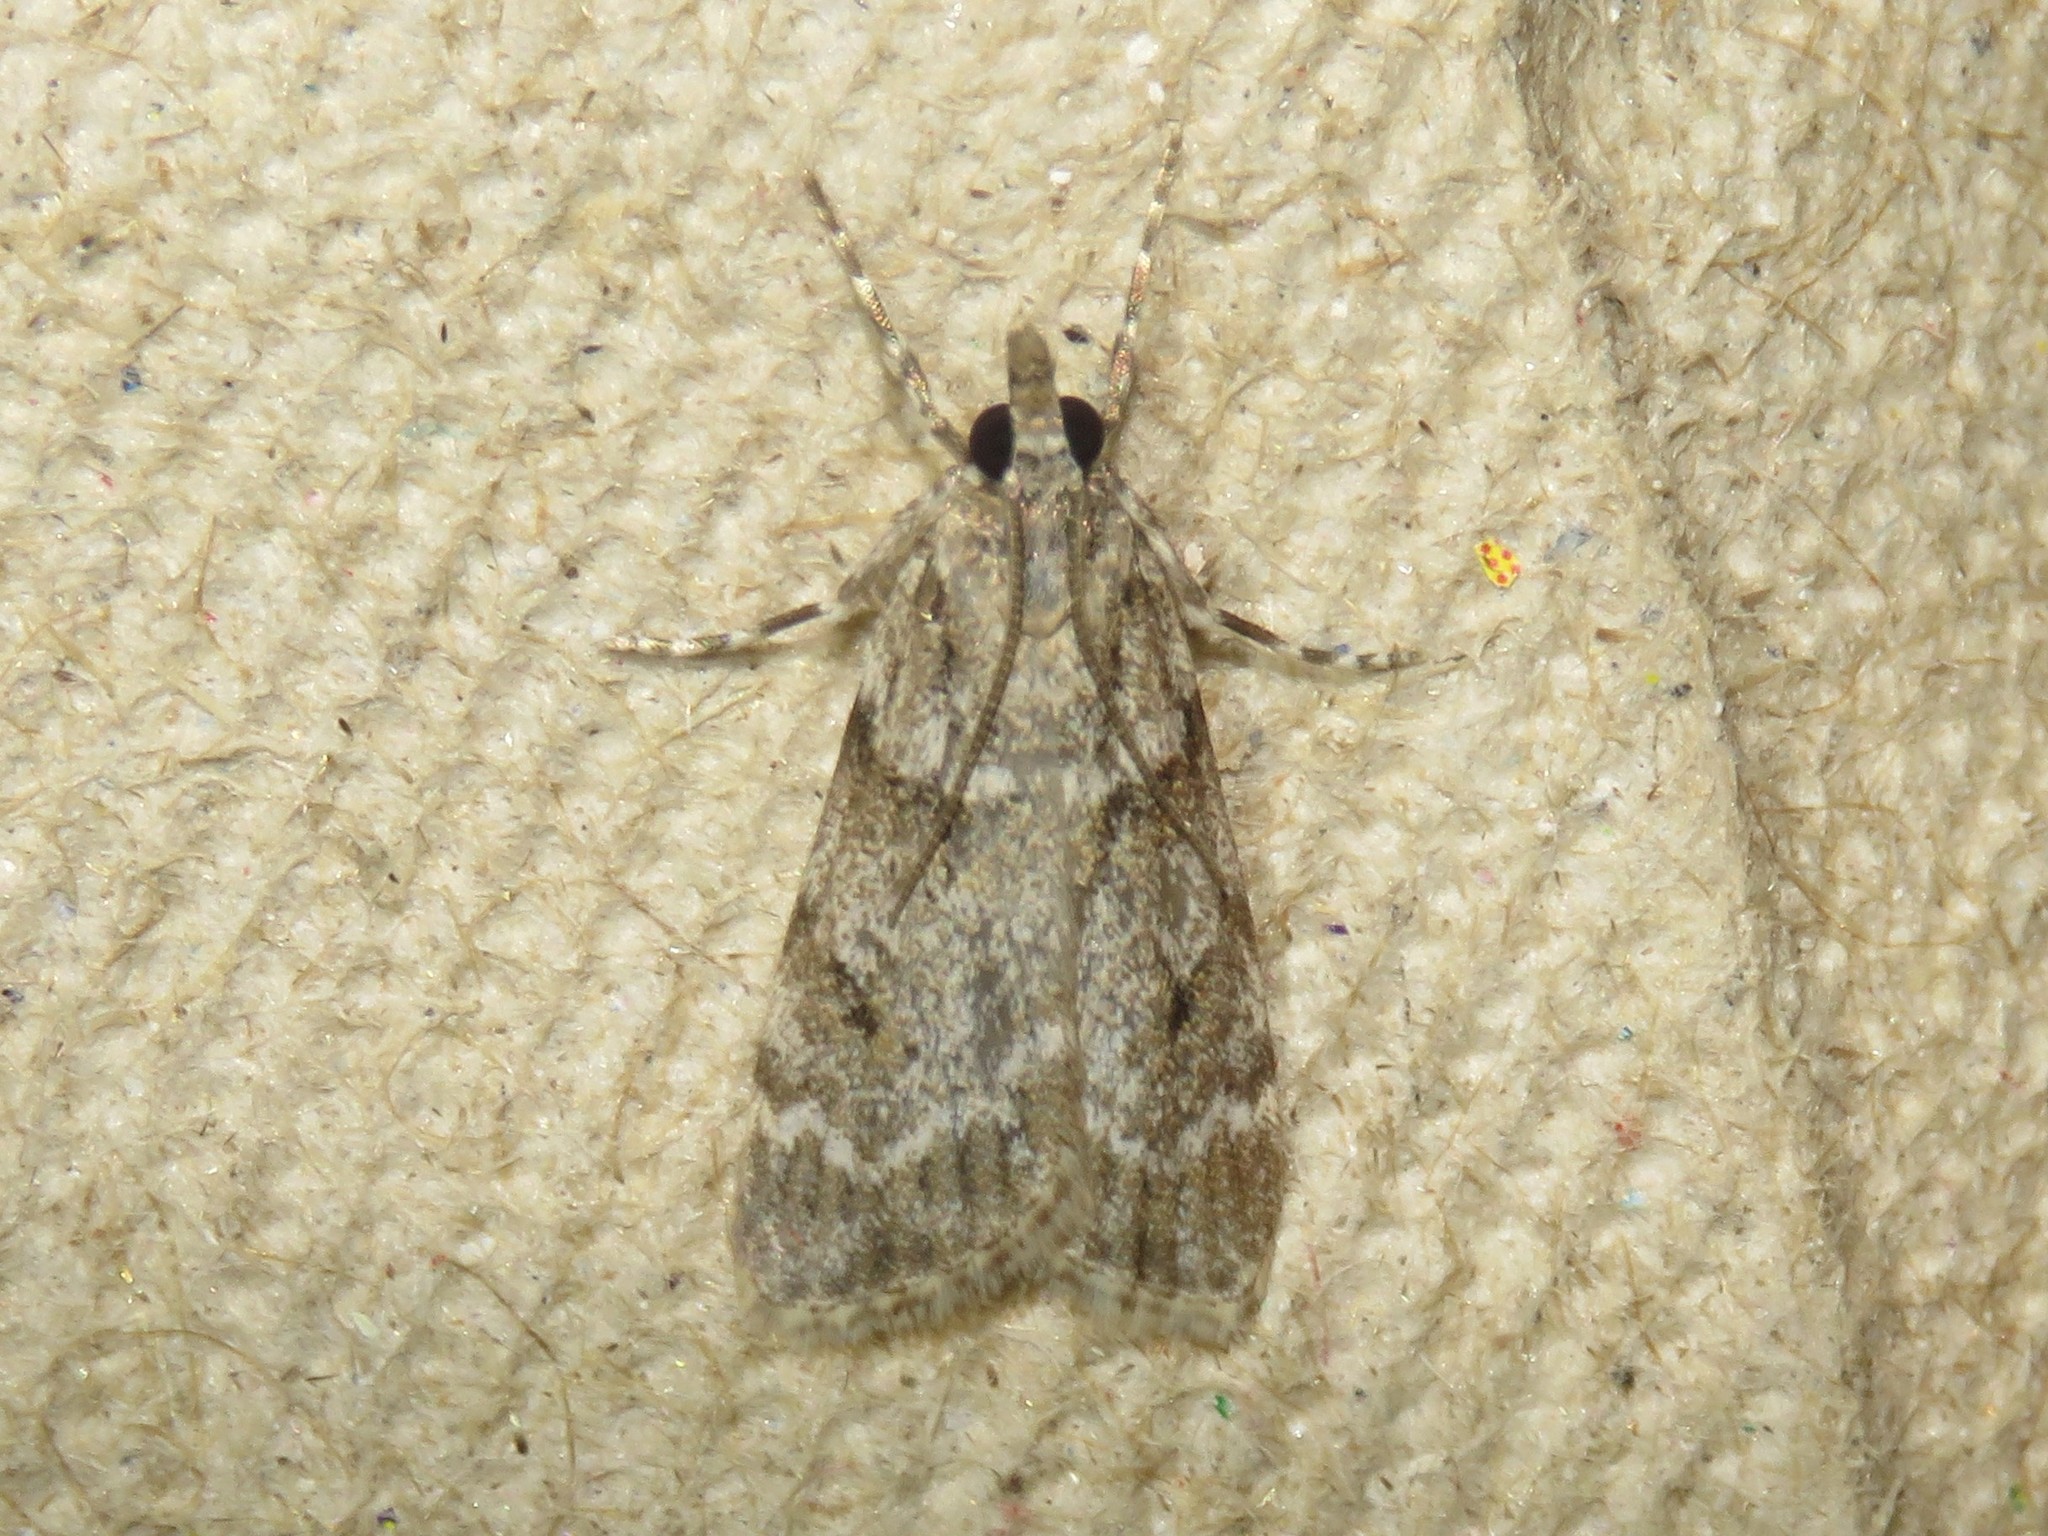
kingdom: Animalia
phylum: Arthropoda
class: Insecta
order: Lepidoptera
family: Crambidae
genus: Scoparia
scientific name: Scoparia biplagialis
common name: Double-striped scoparia moth
